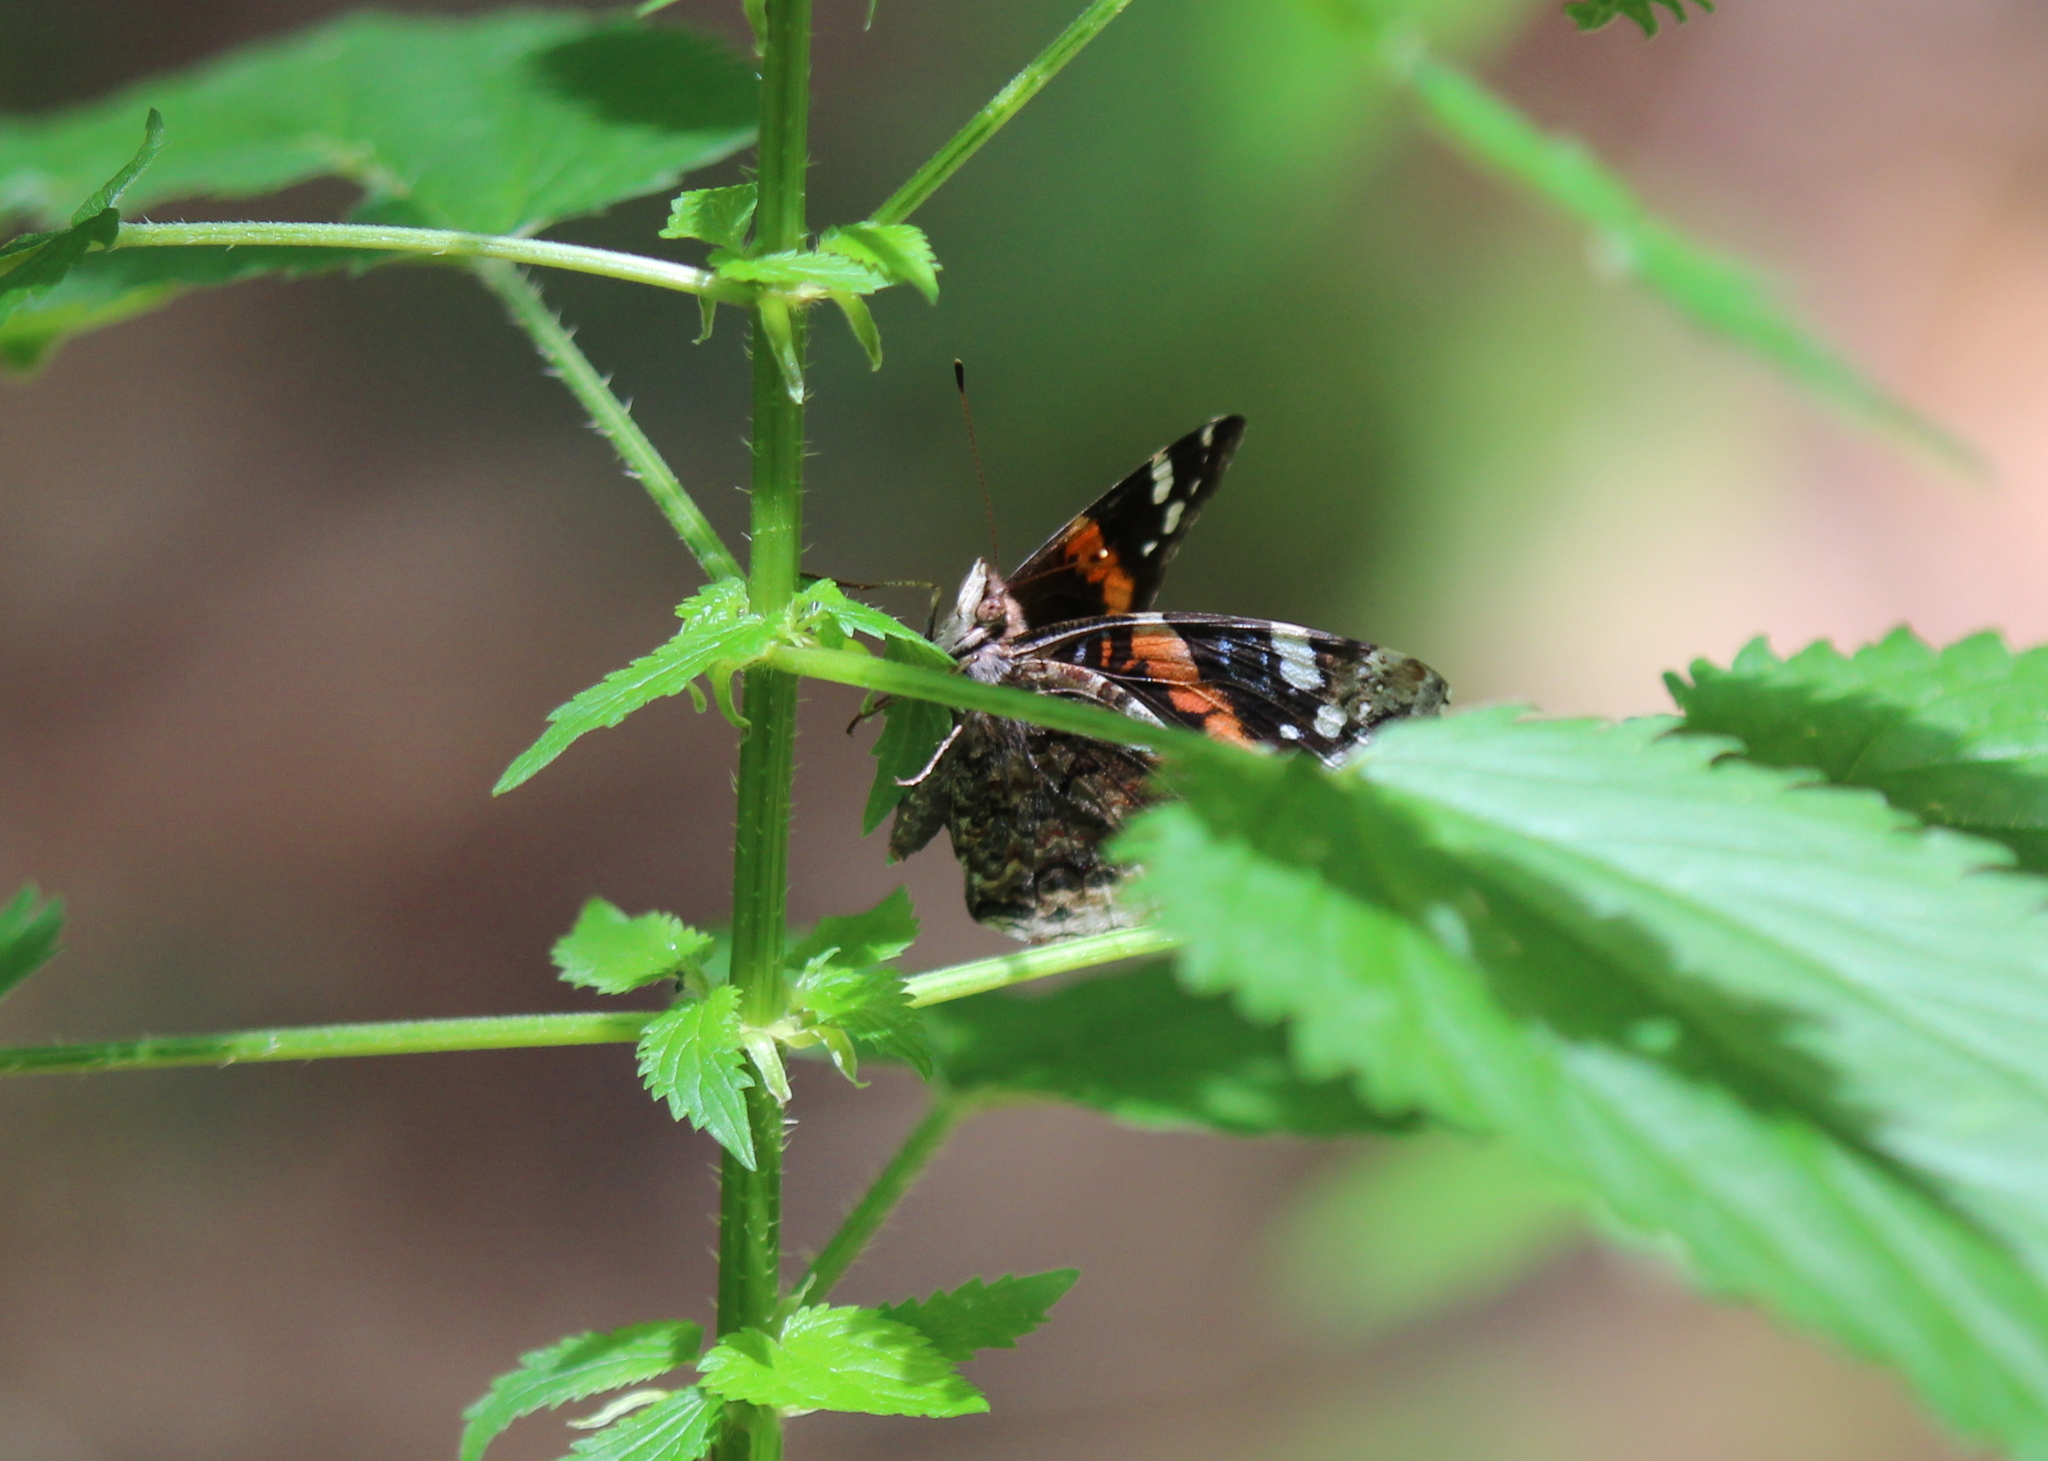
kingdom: Animalia
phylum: Arthropoda
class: Insecta
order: Lepidoptera
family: Nymphalidae
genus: Vanessa
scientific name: Vanessa atalanta
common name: Red admiral
